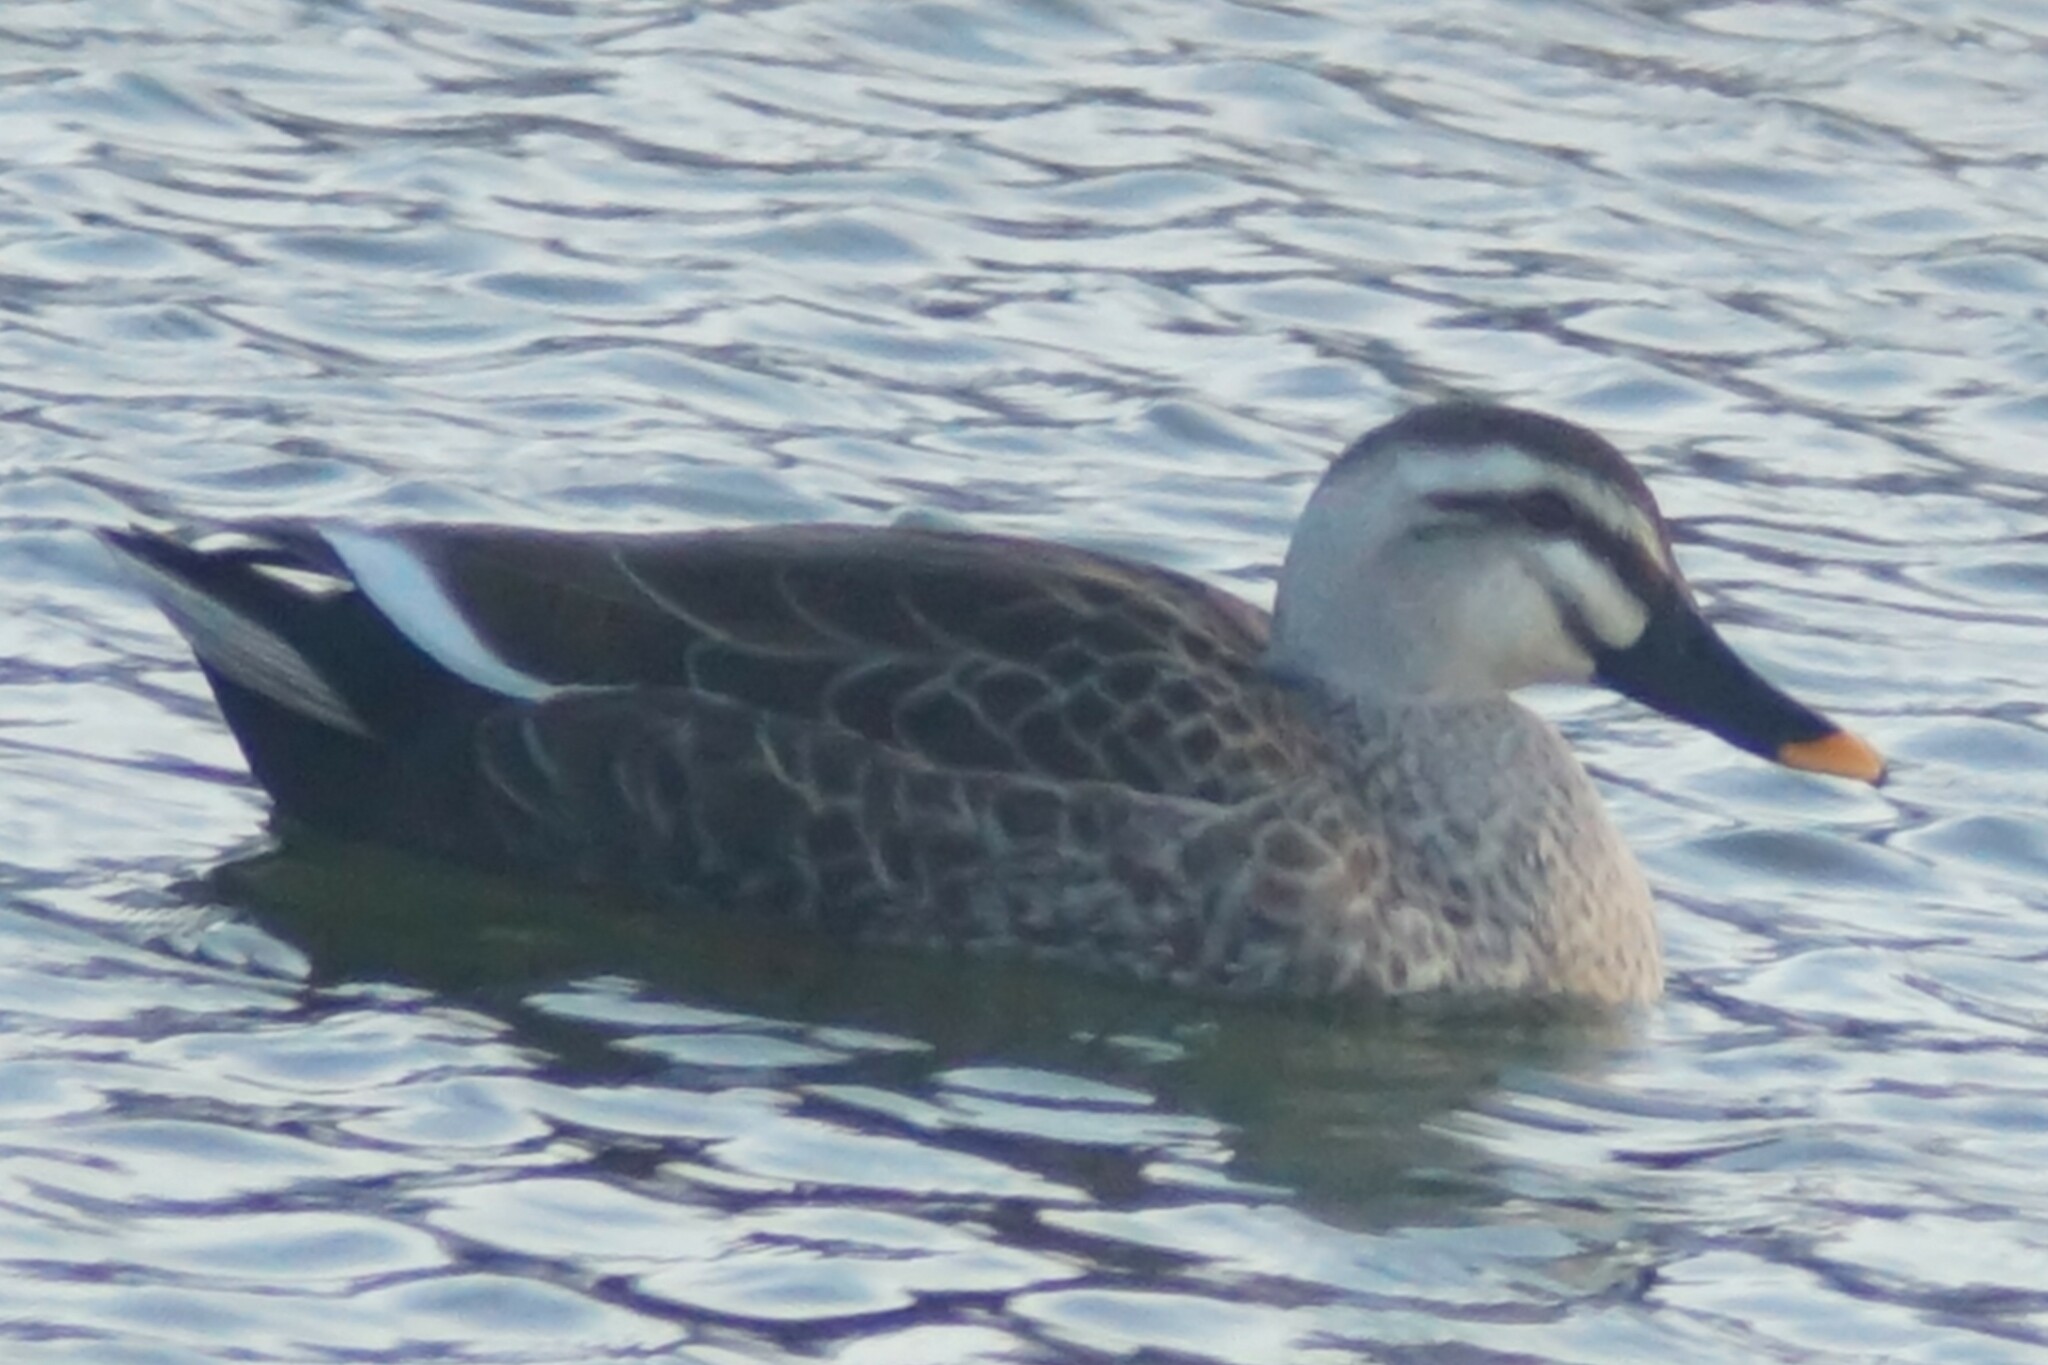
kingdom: Animalia
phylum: Chordata
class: Aves
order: Anseriformes
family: Anatidae
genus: Anas
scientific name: Anas zonorhyncha
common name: Eastern spot-billed duck
